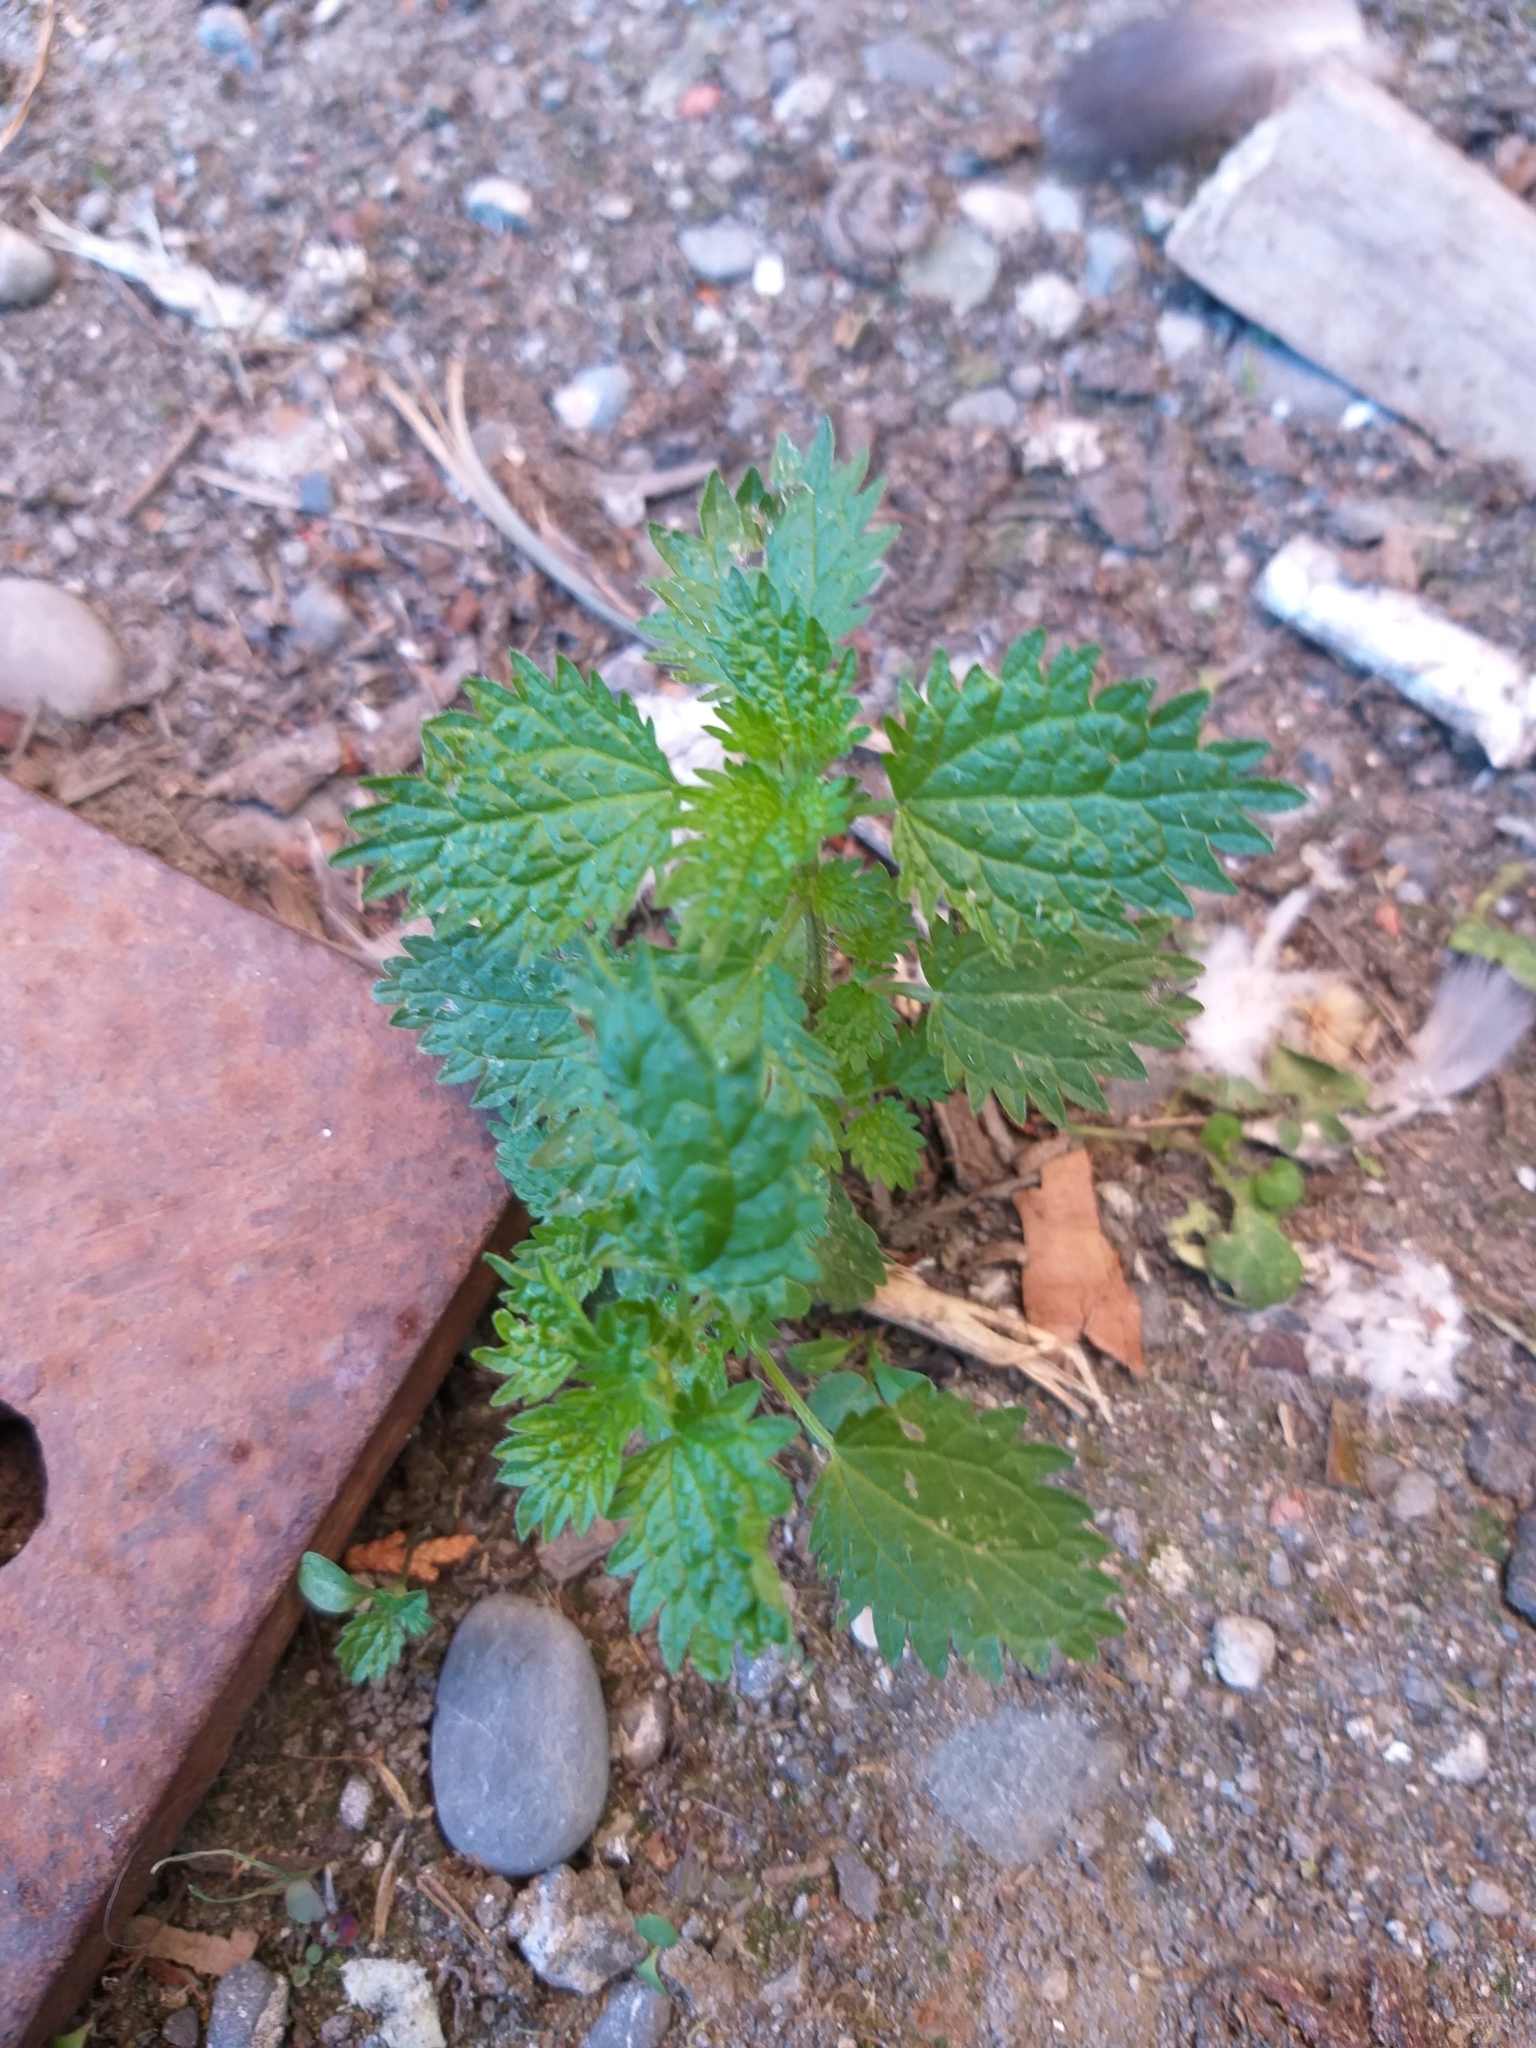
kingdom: Plantae
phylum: Tracheophyta
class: Magnoliopsida
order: Rosales
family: Urticaceae
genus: Urtica
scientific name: Urtica urens
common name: Dwarf nettle
